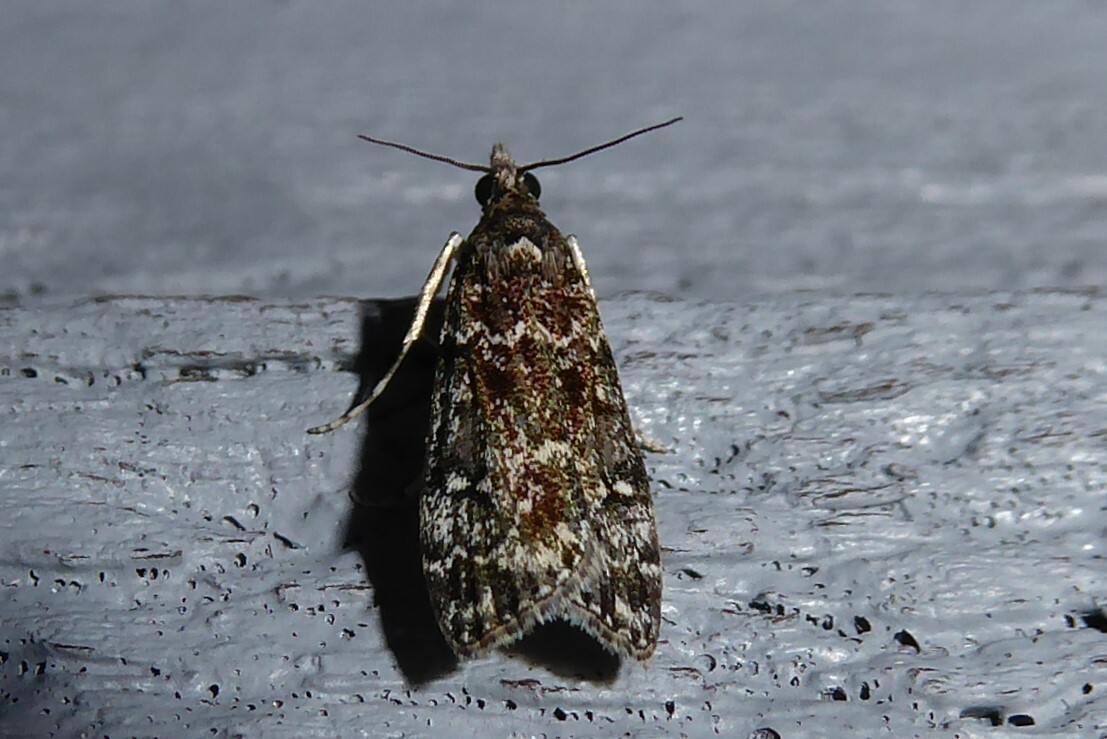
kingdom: Animalia
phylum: Arthropoda
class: Insecta
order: Lepidoptera
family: Crambidae
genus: Eudonia
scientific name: Eudonia philerga
